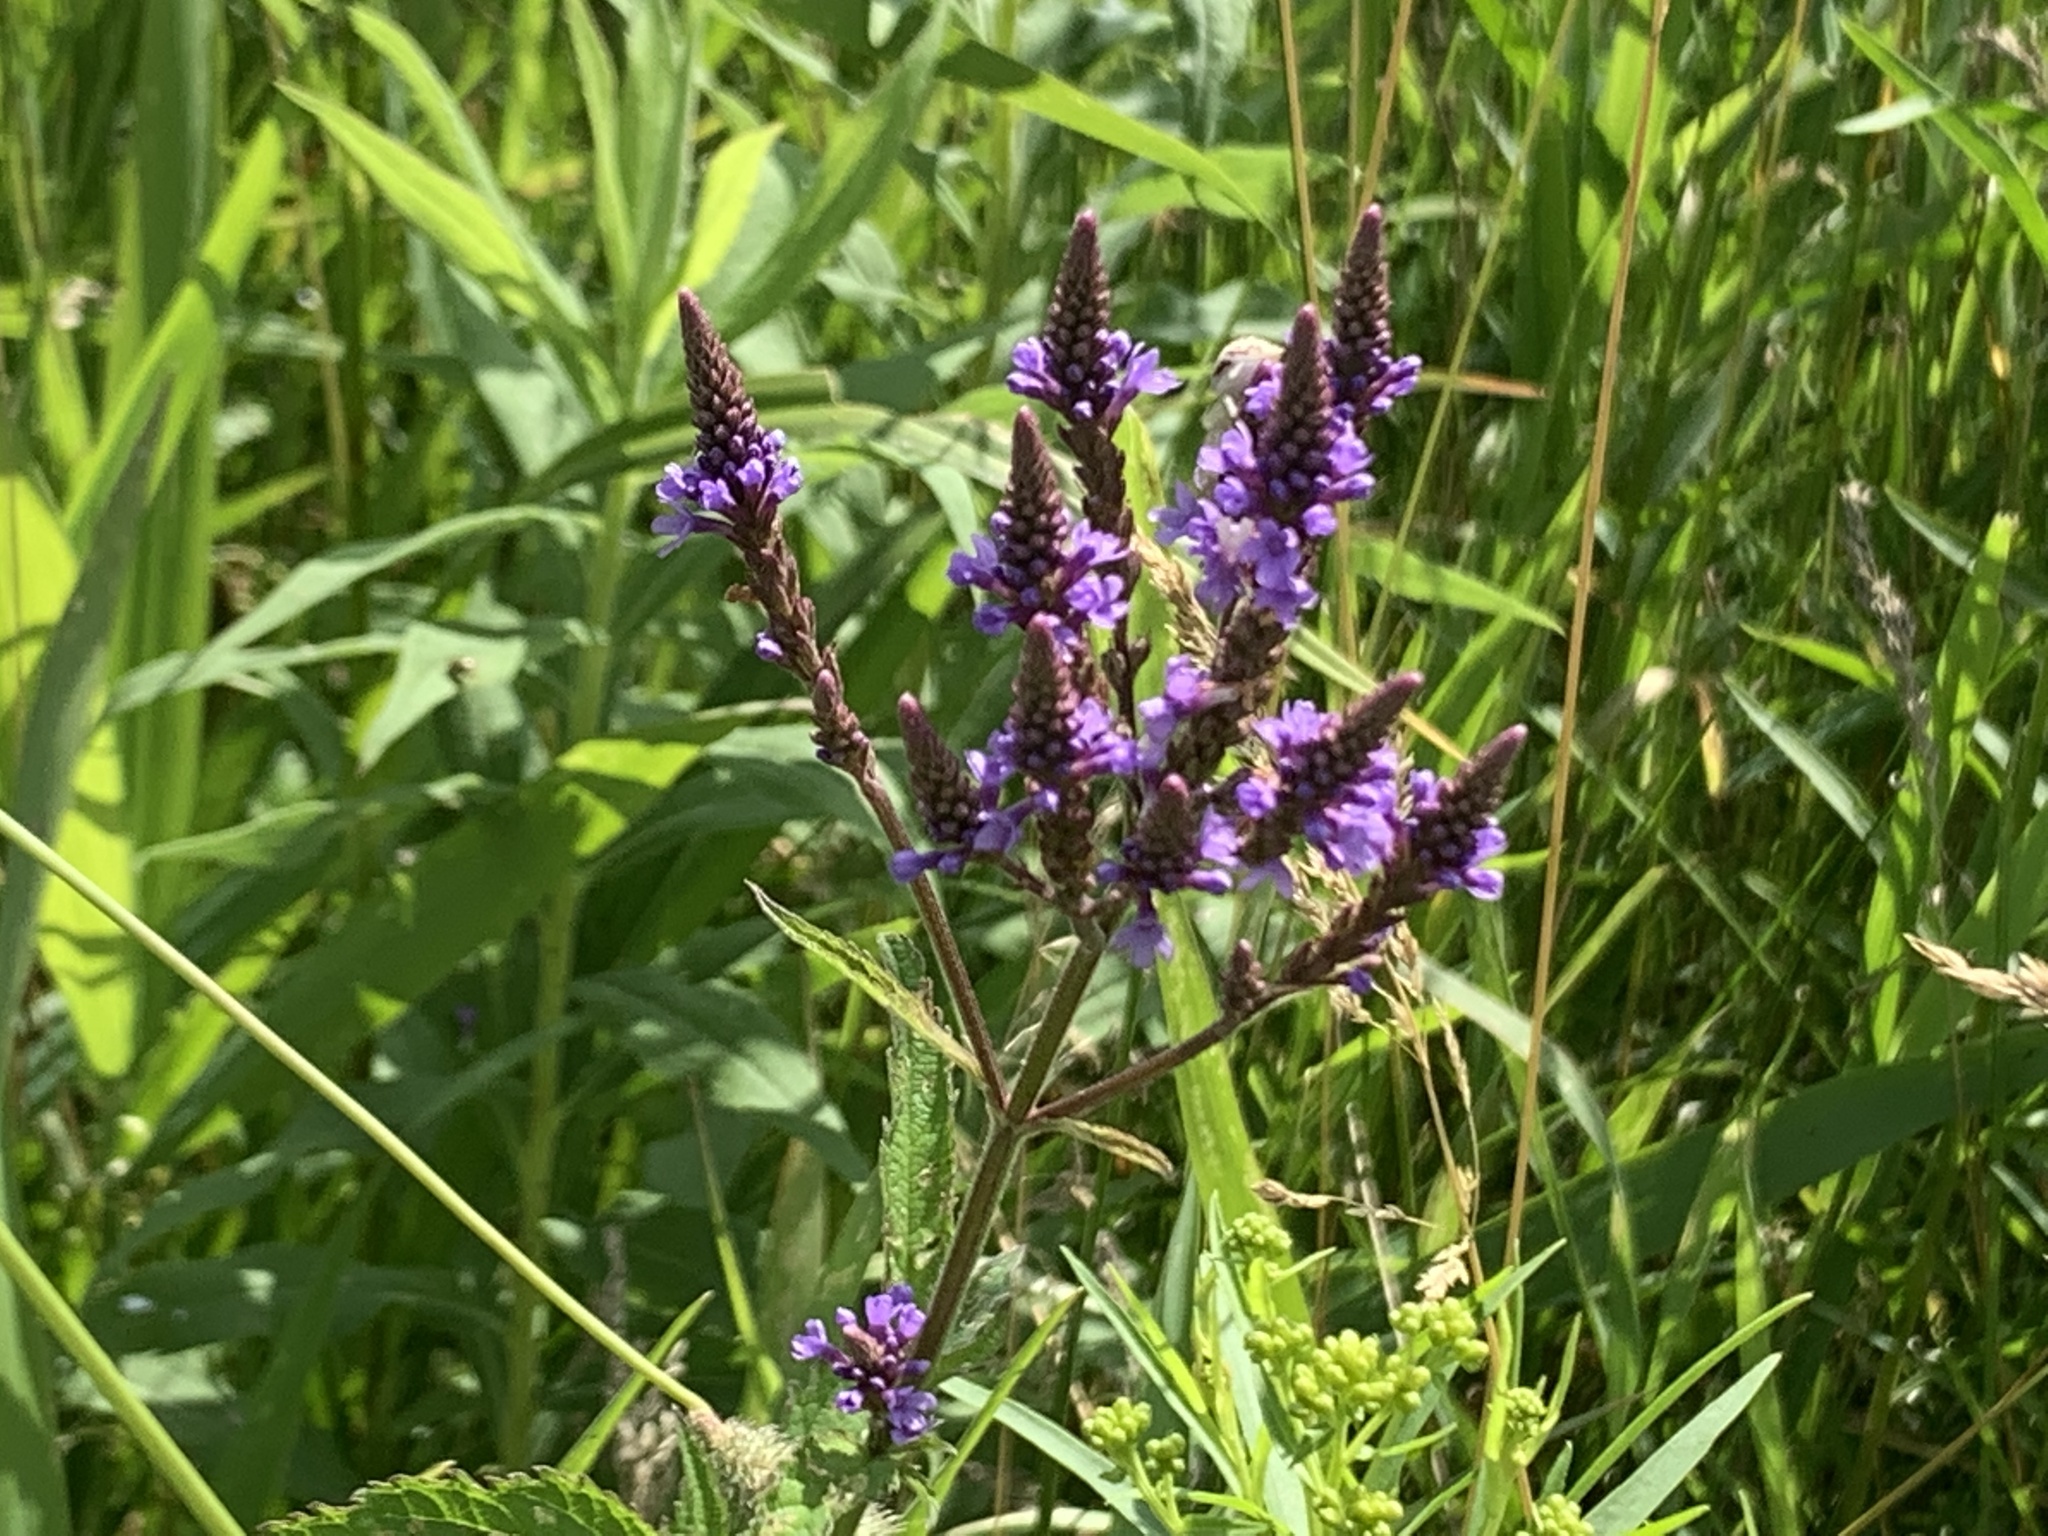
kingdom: Plantae
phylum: Tracheophyta
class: Magnoliopsida
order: Lamiales
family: Verbenaceae
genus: Verbena
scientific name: Verbena hastata
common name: American blue vervain
